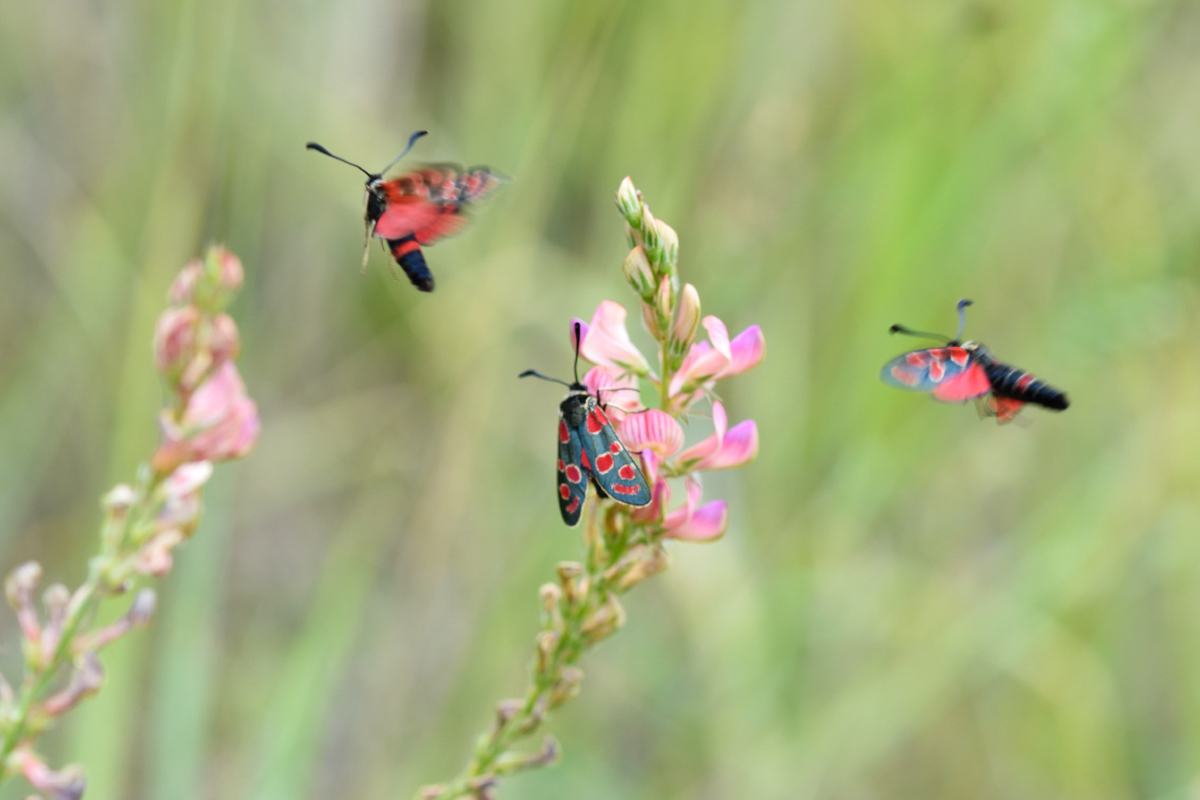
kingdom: Animalia
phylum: Arthropoda
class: Insecta
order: Lepidoptera
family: Zygaenidae
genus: Zygaena
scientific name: Zygaena carniolica
